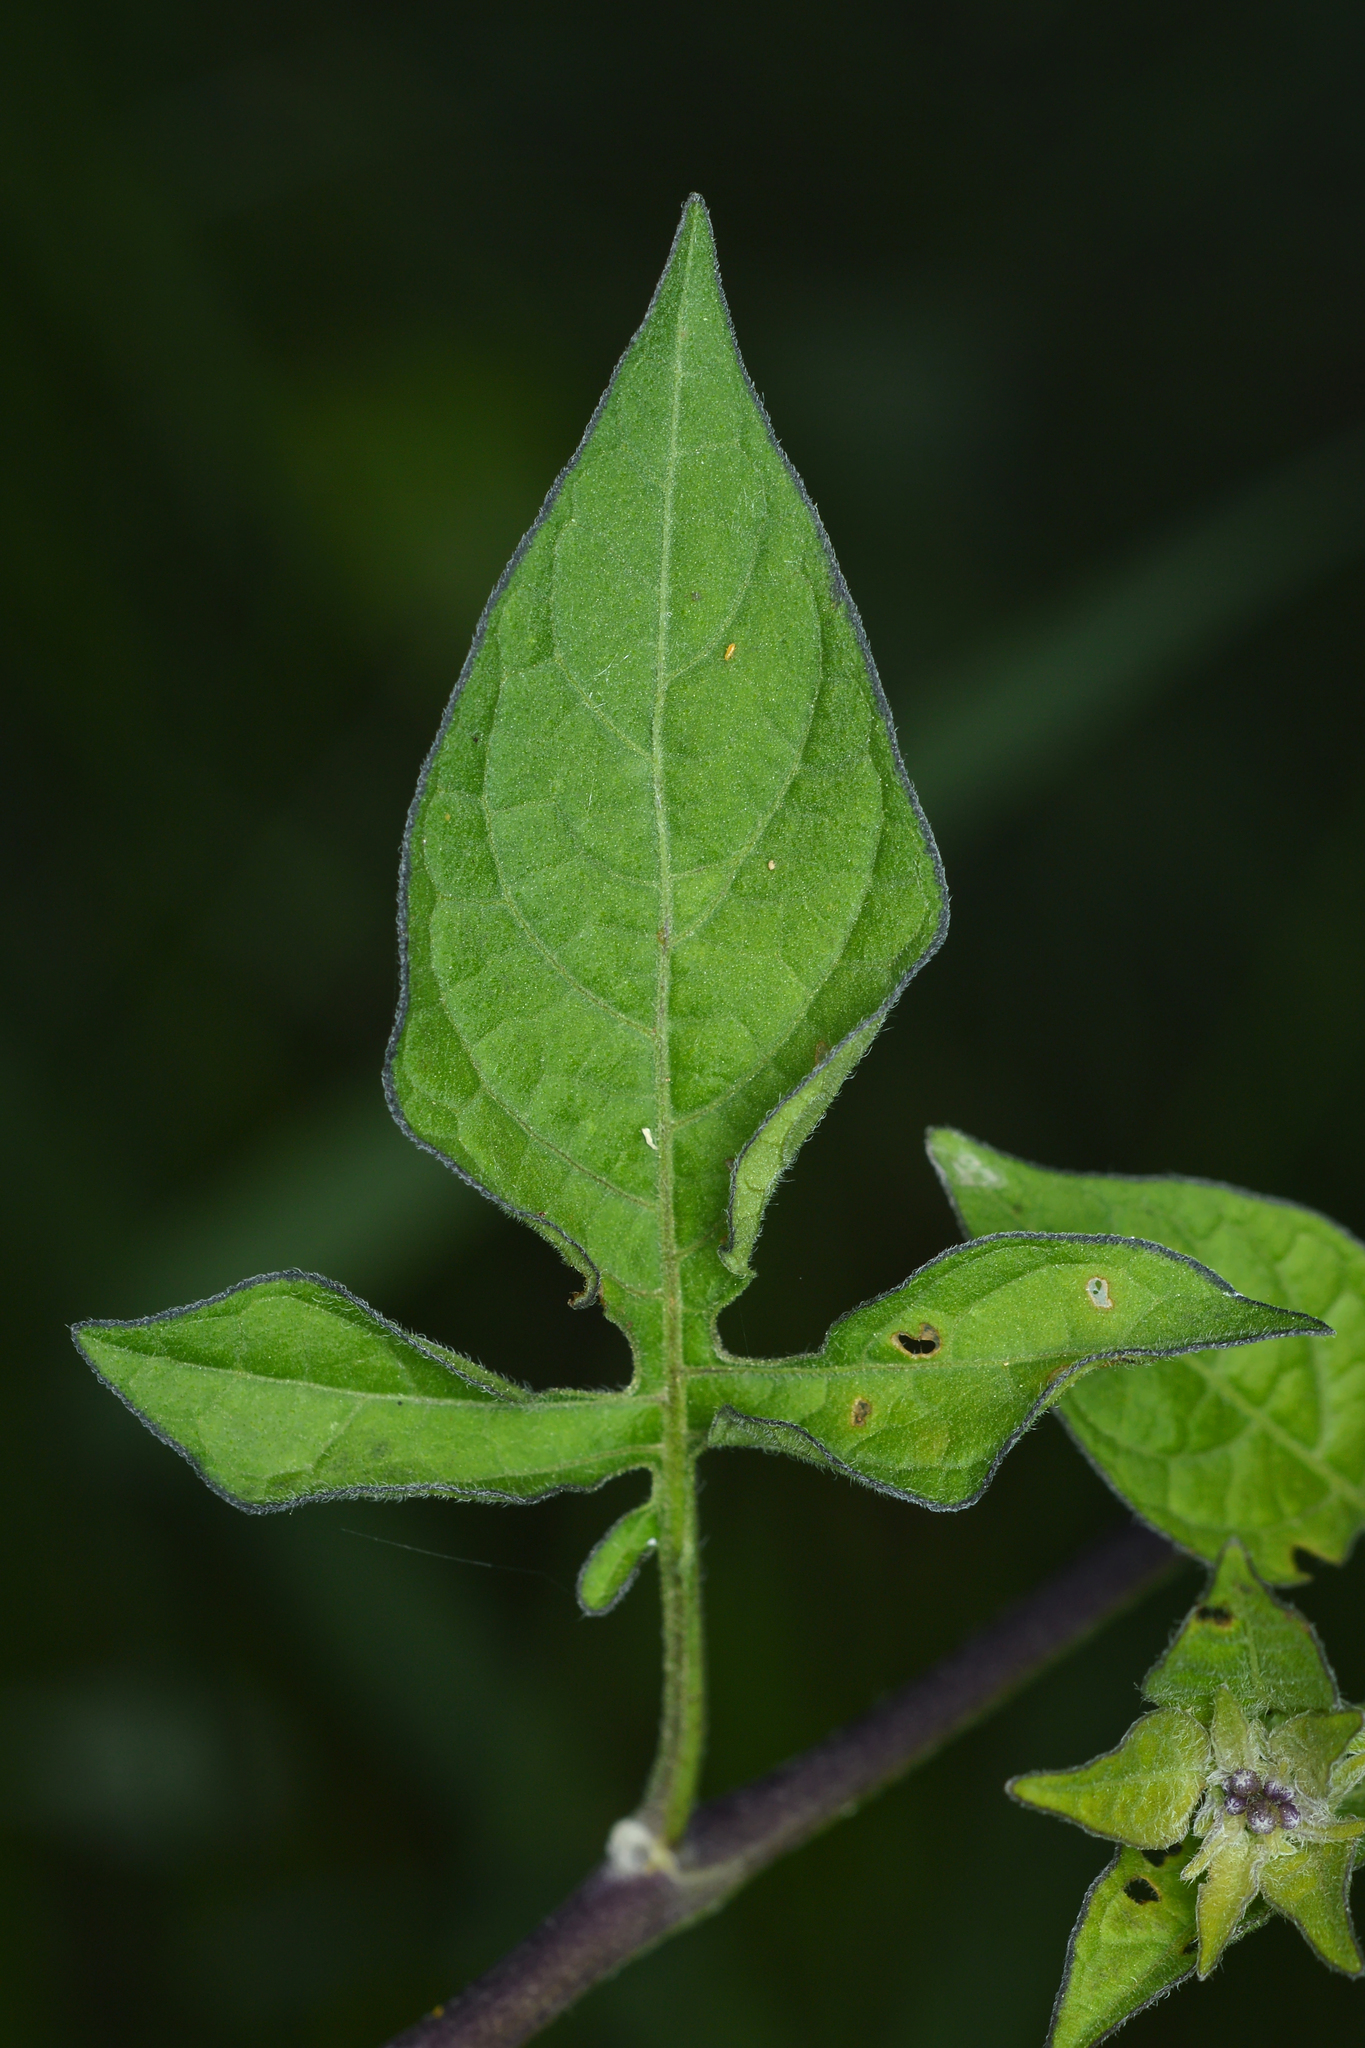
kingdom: Plantae
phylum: Tracheophyta
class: Magnoliopsida
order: Solanales
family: Solanaceae
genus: Solanum
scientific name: Solanum dulcamara
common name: Climbing nightshade
